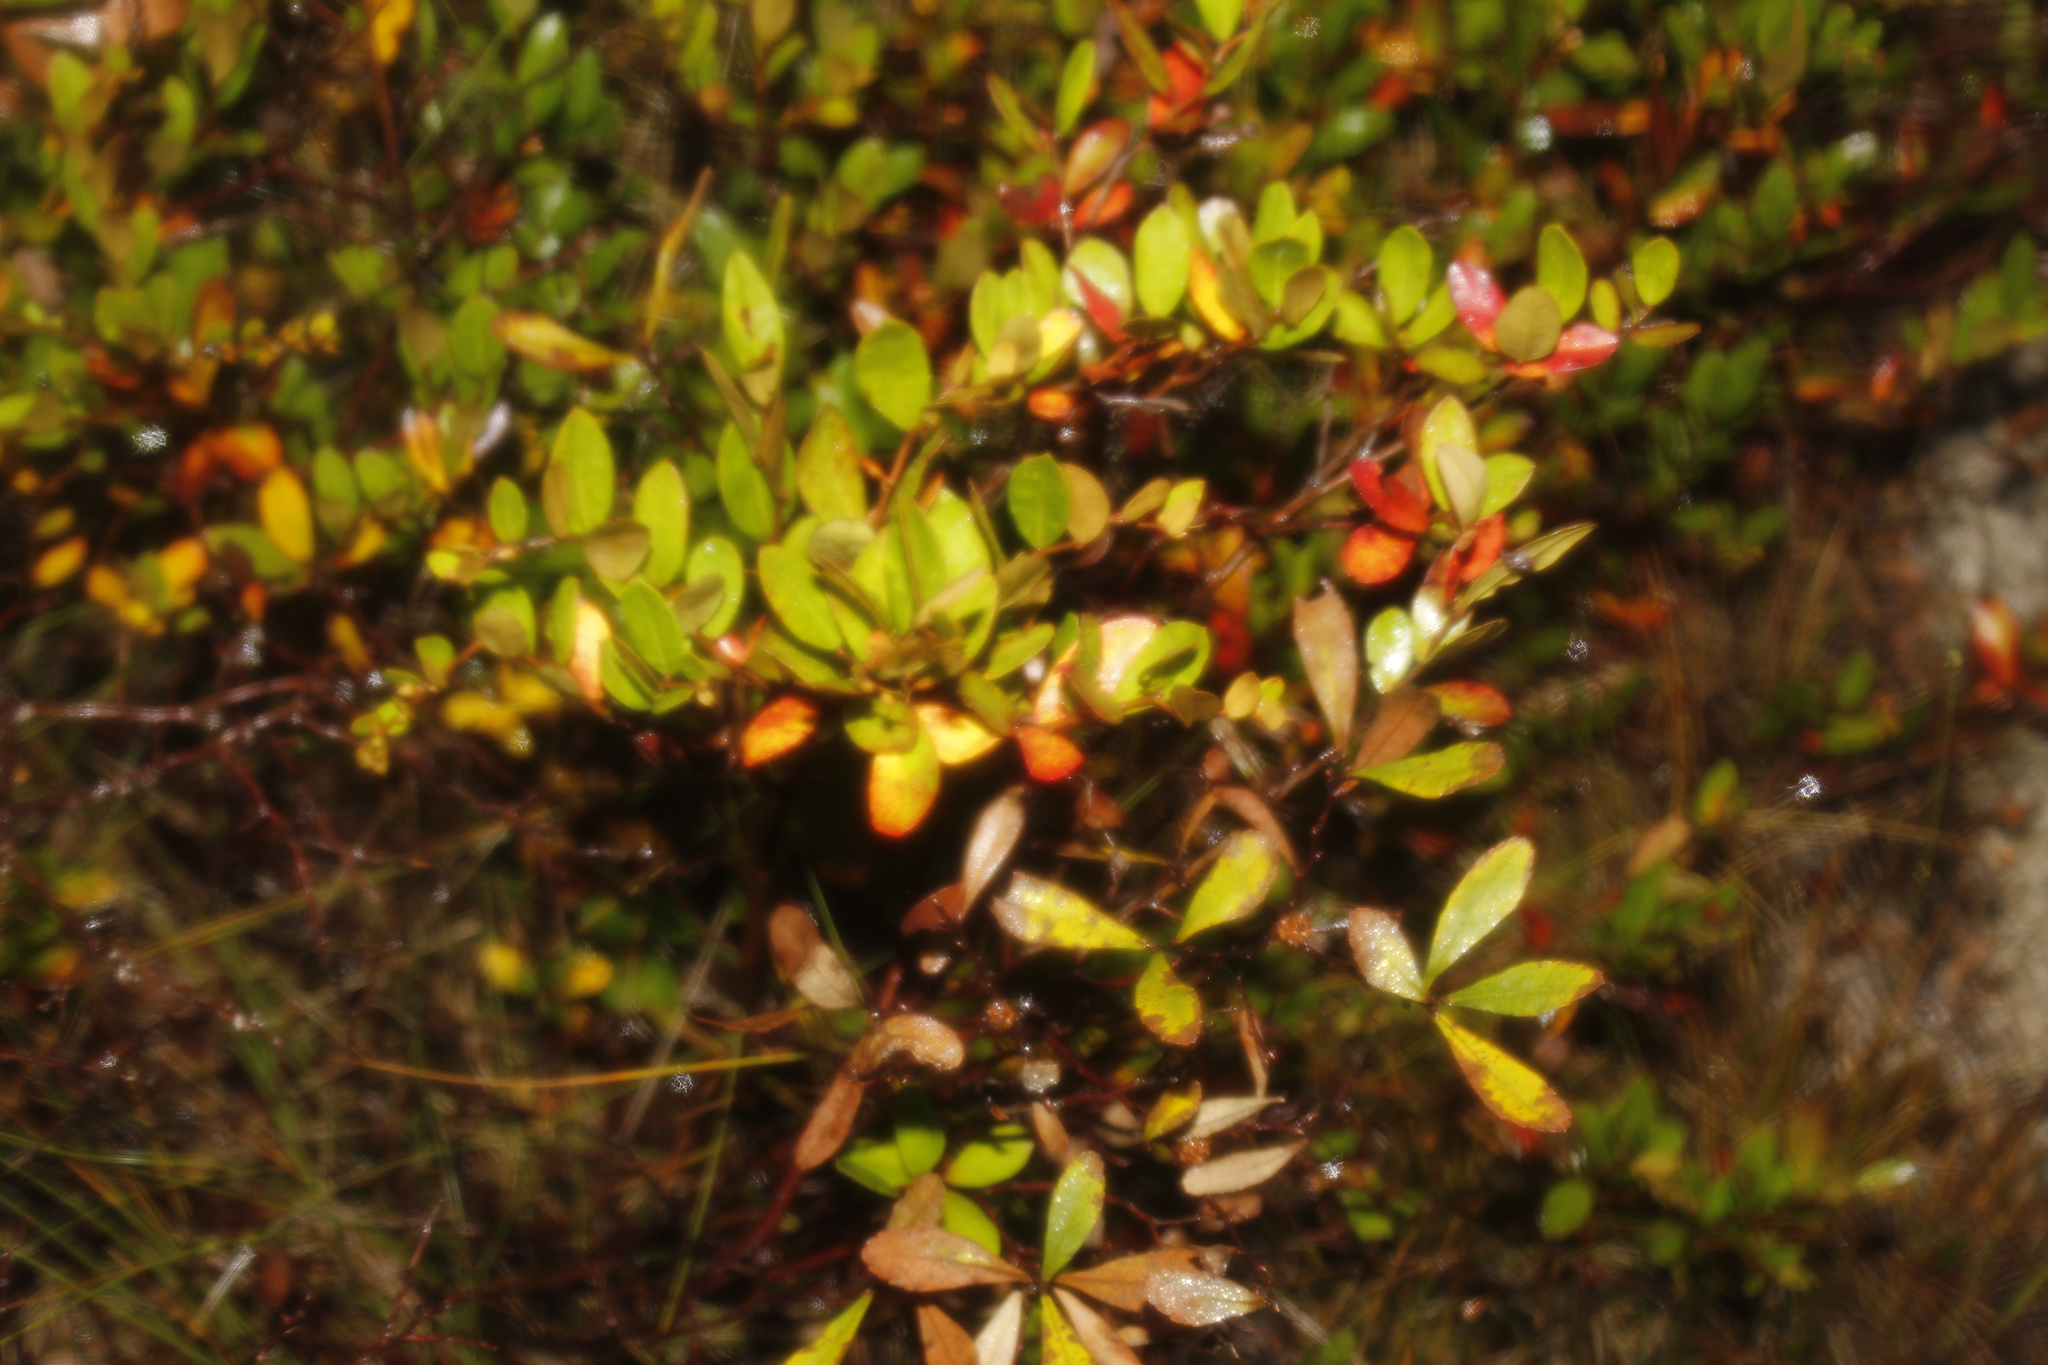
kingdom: Plantae
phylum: Tracheophyta
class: Magnoliopsida
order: Ericales
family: Ericaceae
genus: Chamaedaphne
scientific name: Chamaedaphne calyculata
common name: Leatherleaf
